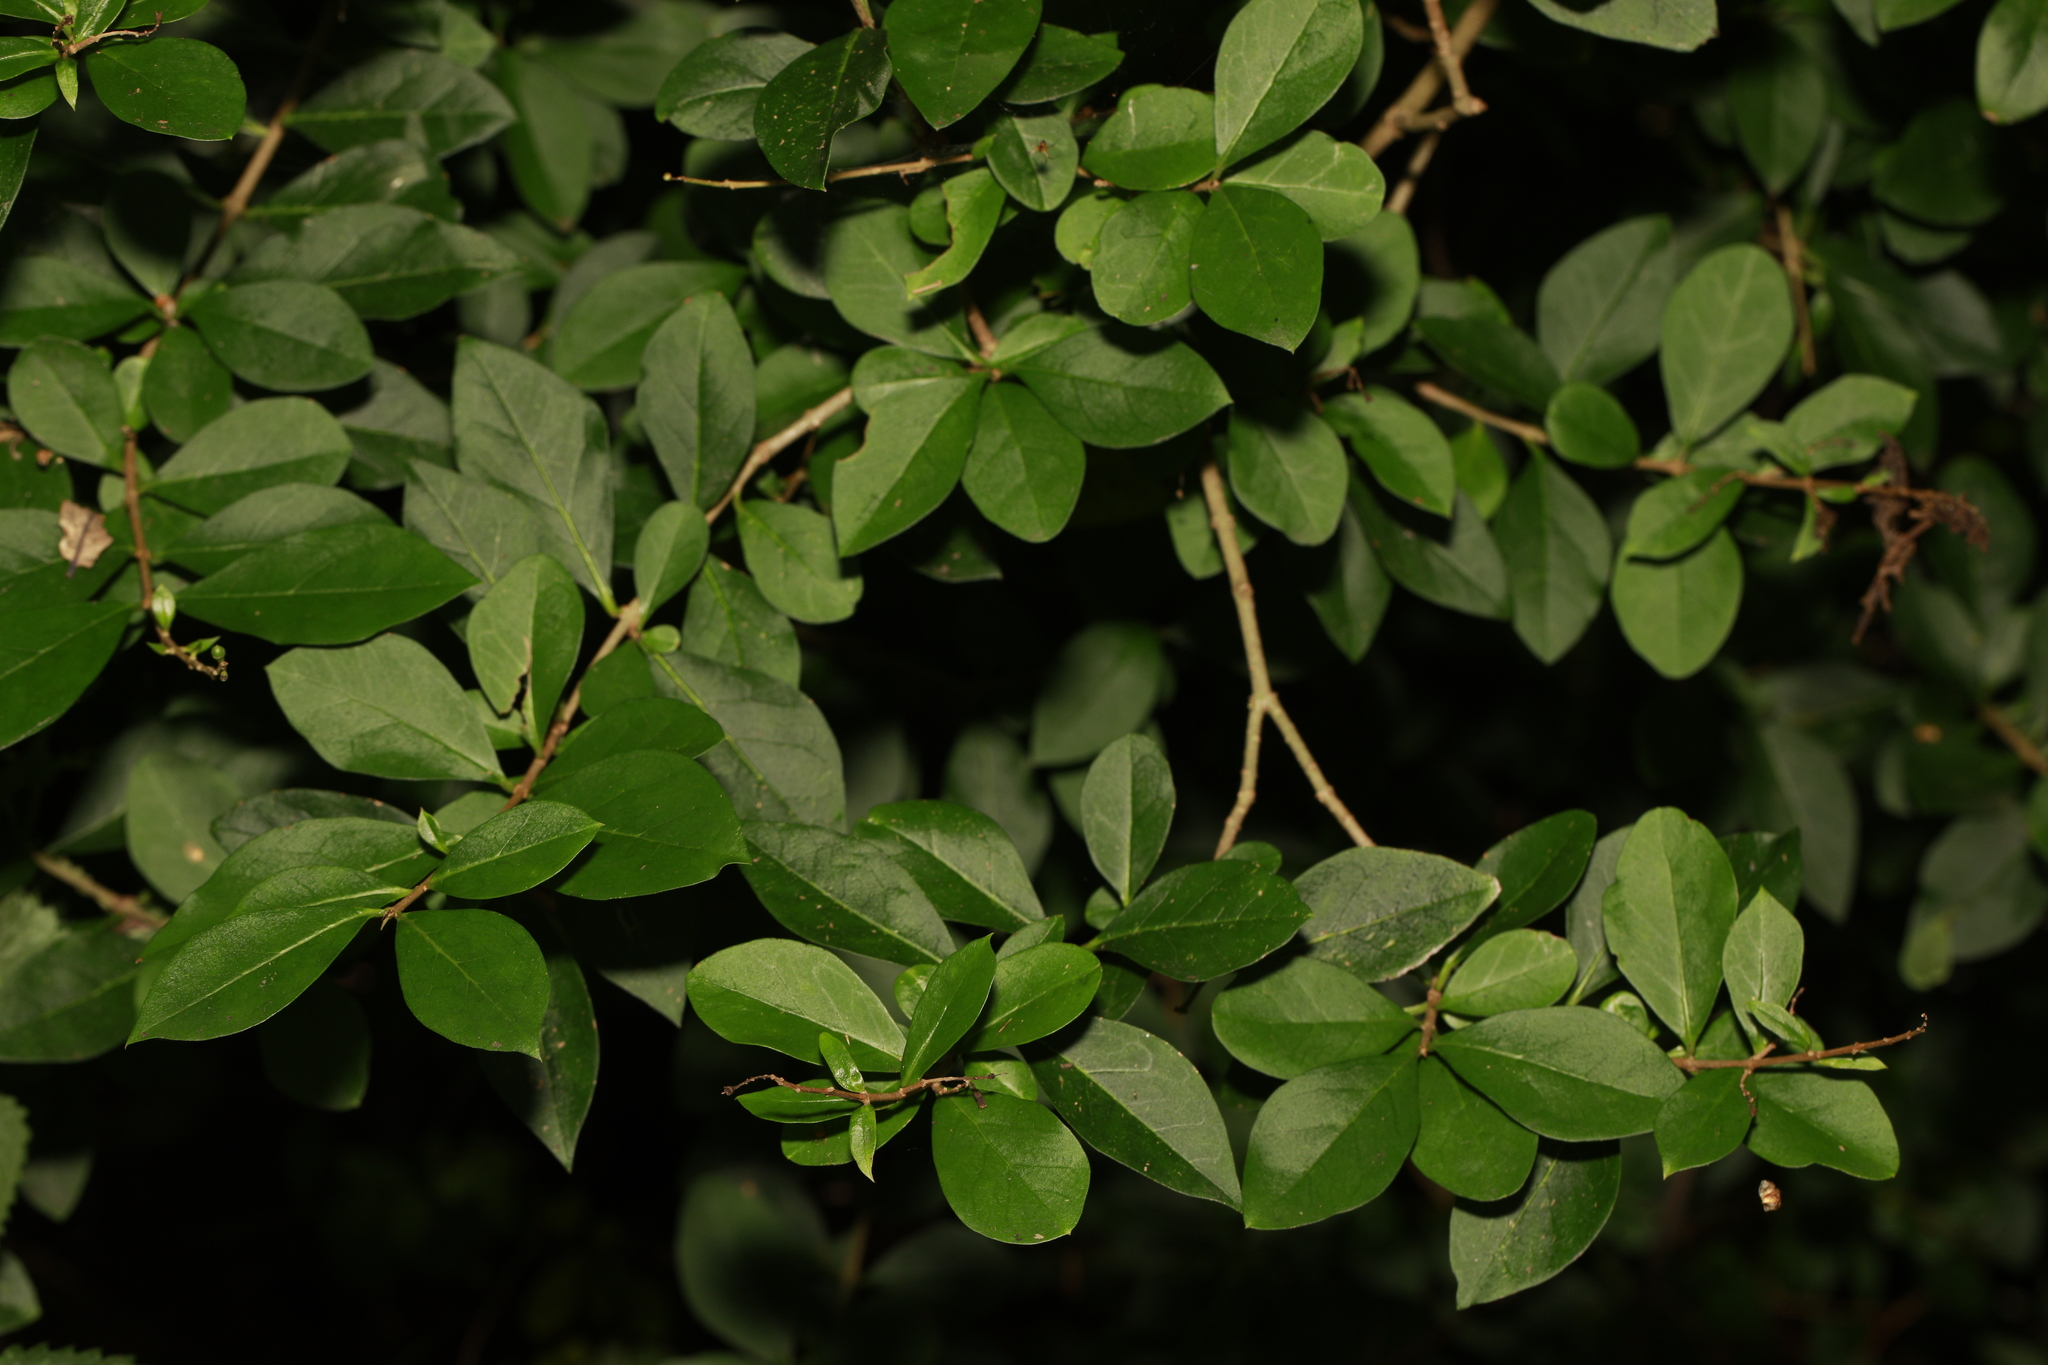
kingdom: Plantae
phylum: Tracheophyta
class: Magnoliopsida
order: Lamiales
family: Oleaceae
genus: Ligustrum
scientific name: Ligustrum ovalifolium
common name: California privet
